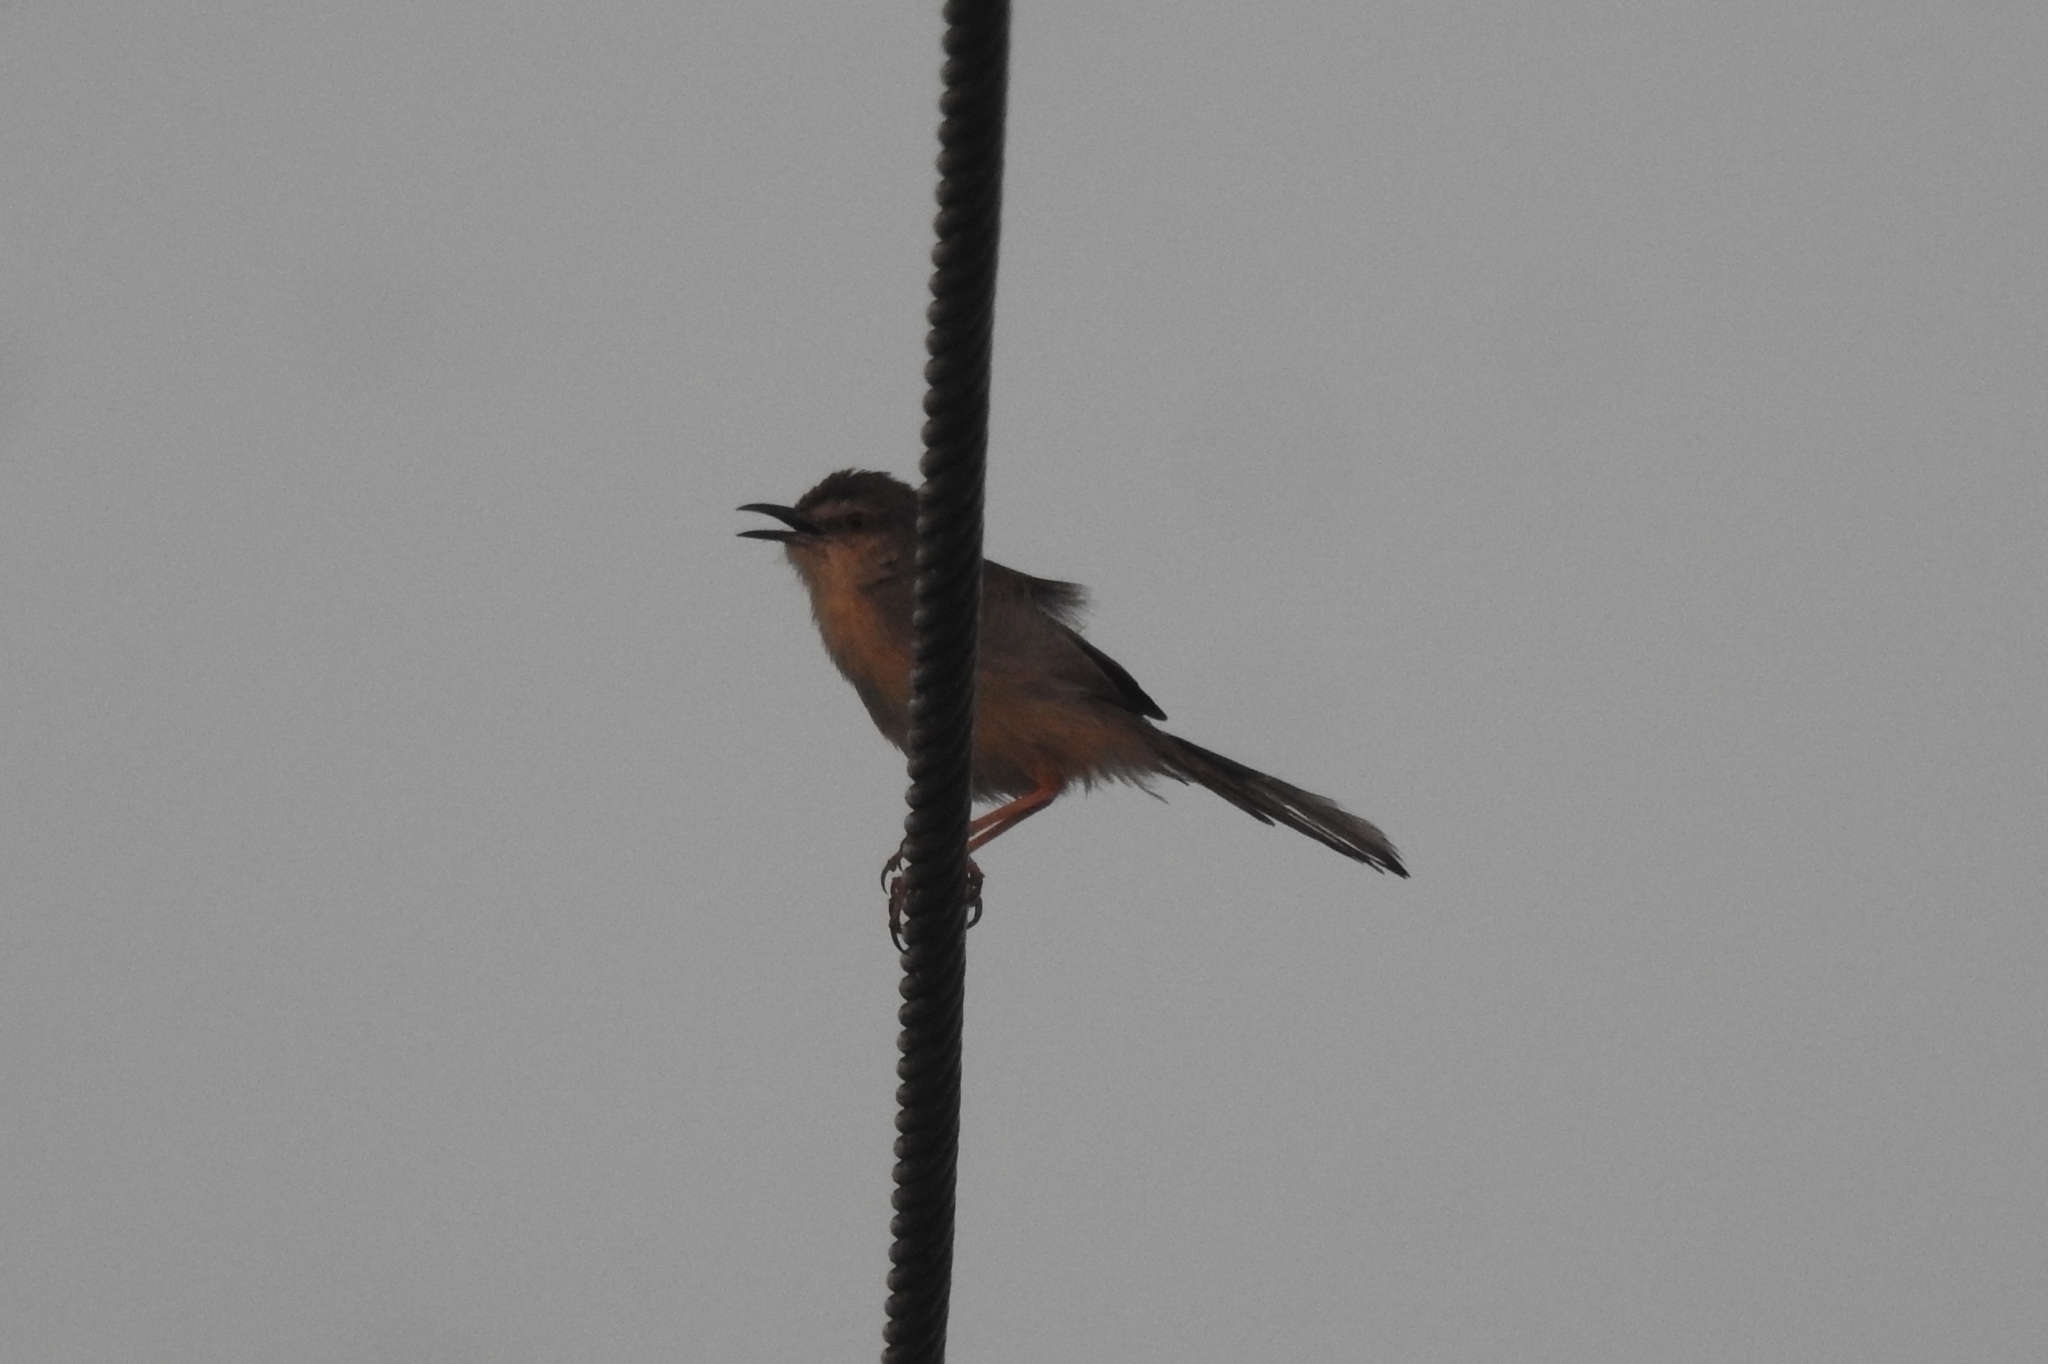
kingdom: Animalia
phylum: Chordata
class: Aves
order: Passeriformes
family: Cisticolidae
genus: Prinia
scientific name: Prinia inornata
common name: Plain prinia
